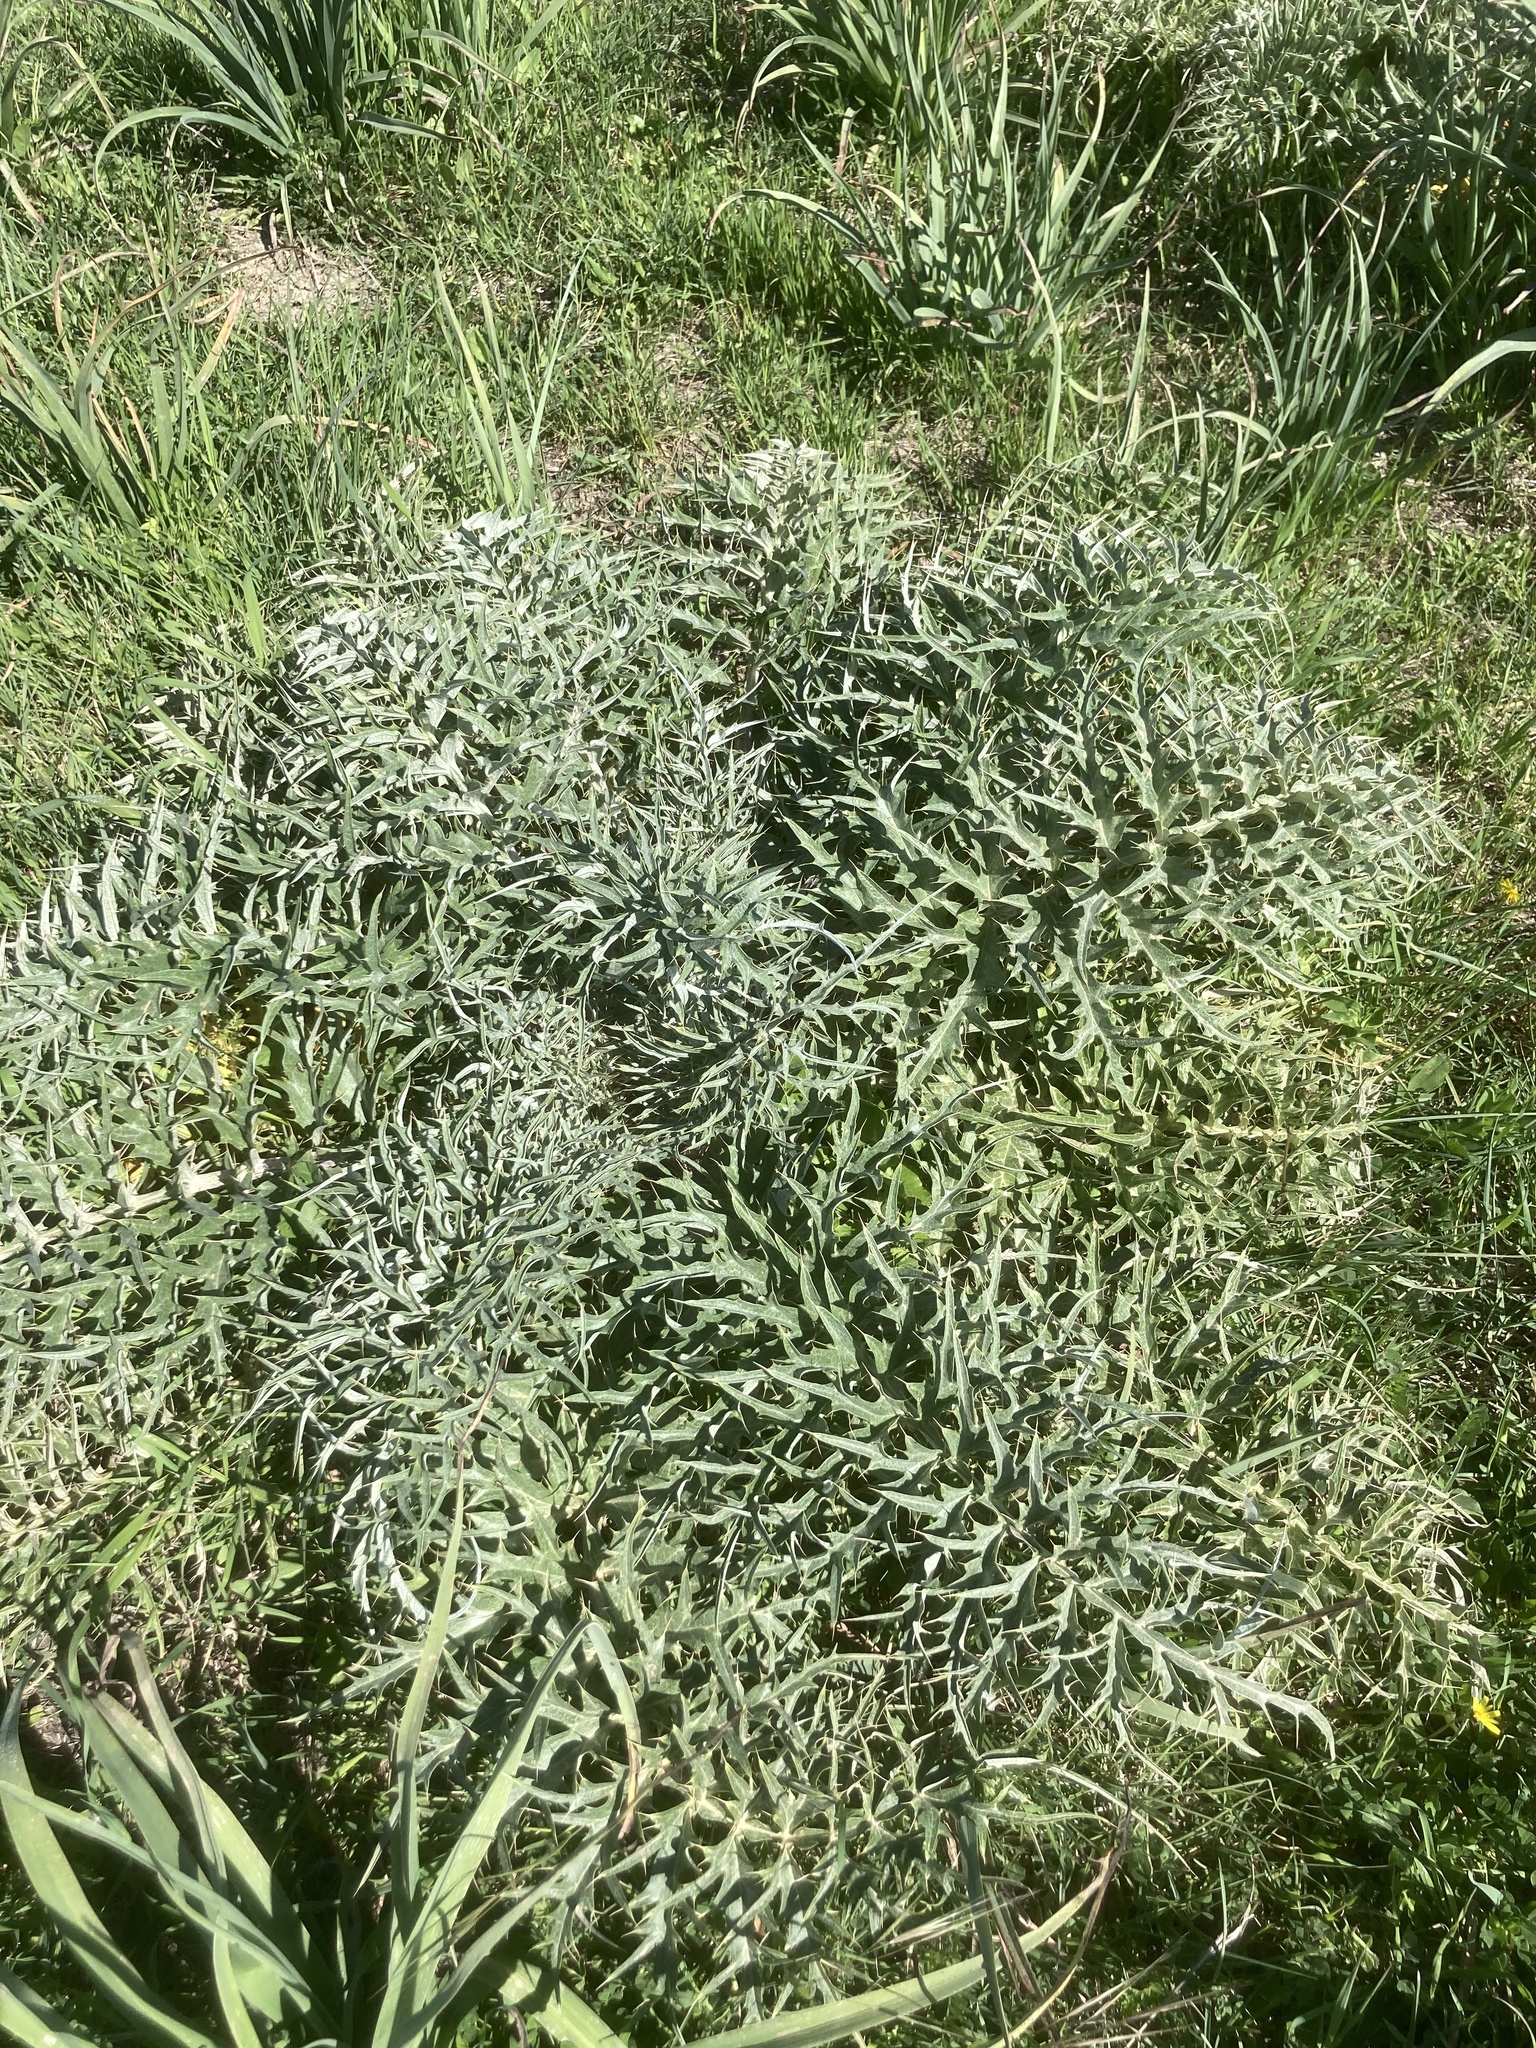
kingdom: Plantae
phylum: Tracheophyta
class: Magnoliopsida
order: Asterales
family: Asteraceae
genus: Cynara
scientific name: Cynara cardunculus
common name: Globe artichoke
